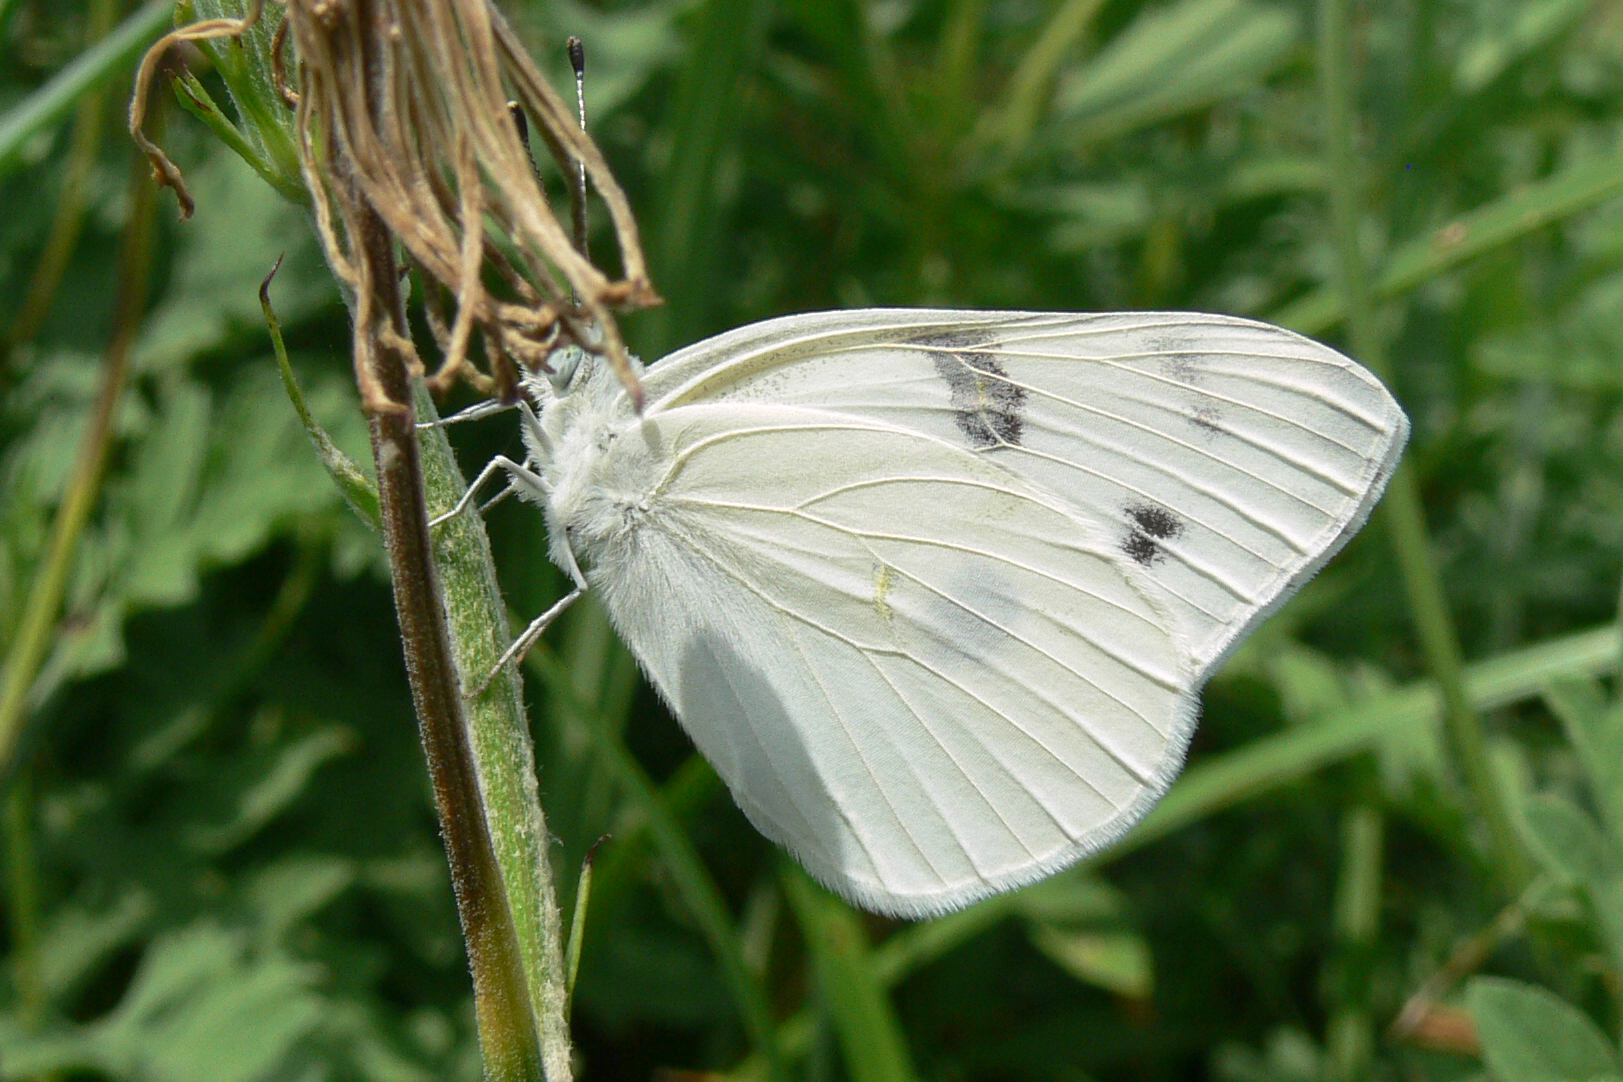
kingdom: Animalia
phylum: Arthropoda
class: Insecta
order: Lepidoptera
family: Pieridae
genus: Pontia
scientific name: Pontia protodice
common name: Checkered white
